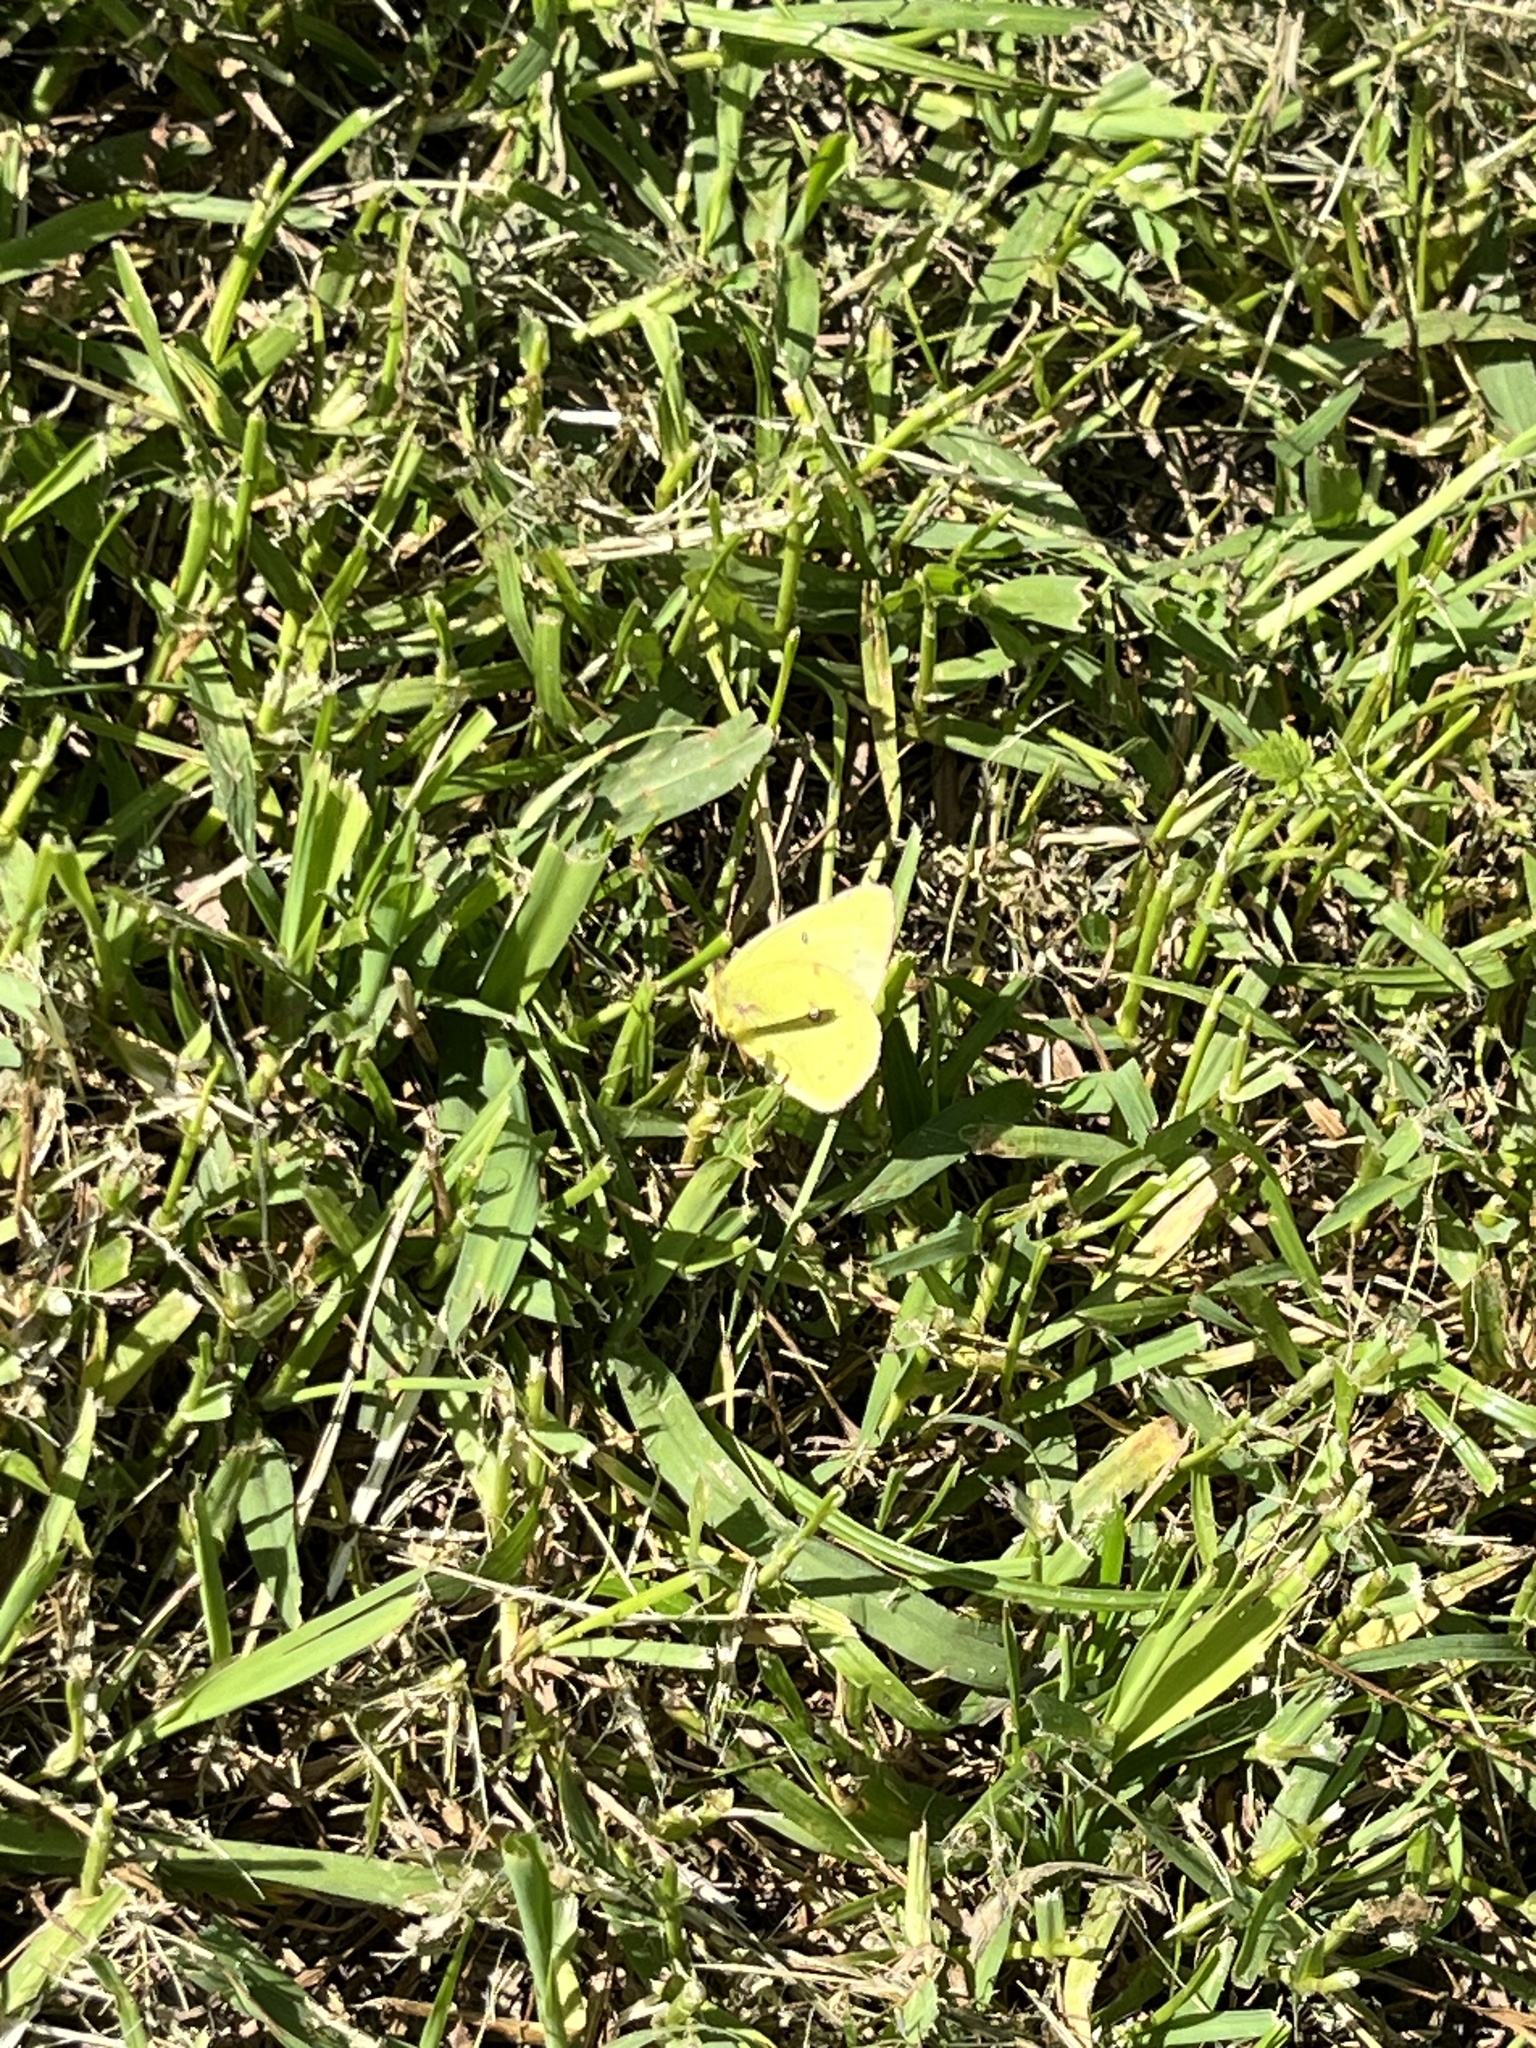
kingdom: Animalia
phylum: Arthropoda
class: Insecta
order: Lepidoptera
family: Pieridae
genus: Colias
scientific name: Colias eurytheme
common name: Alfalfa butterfly
